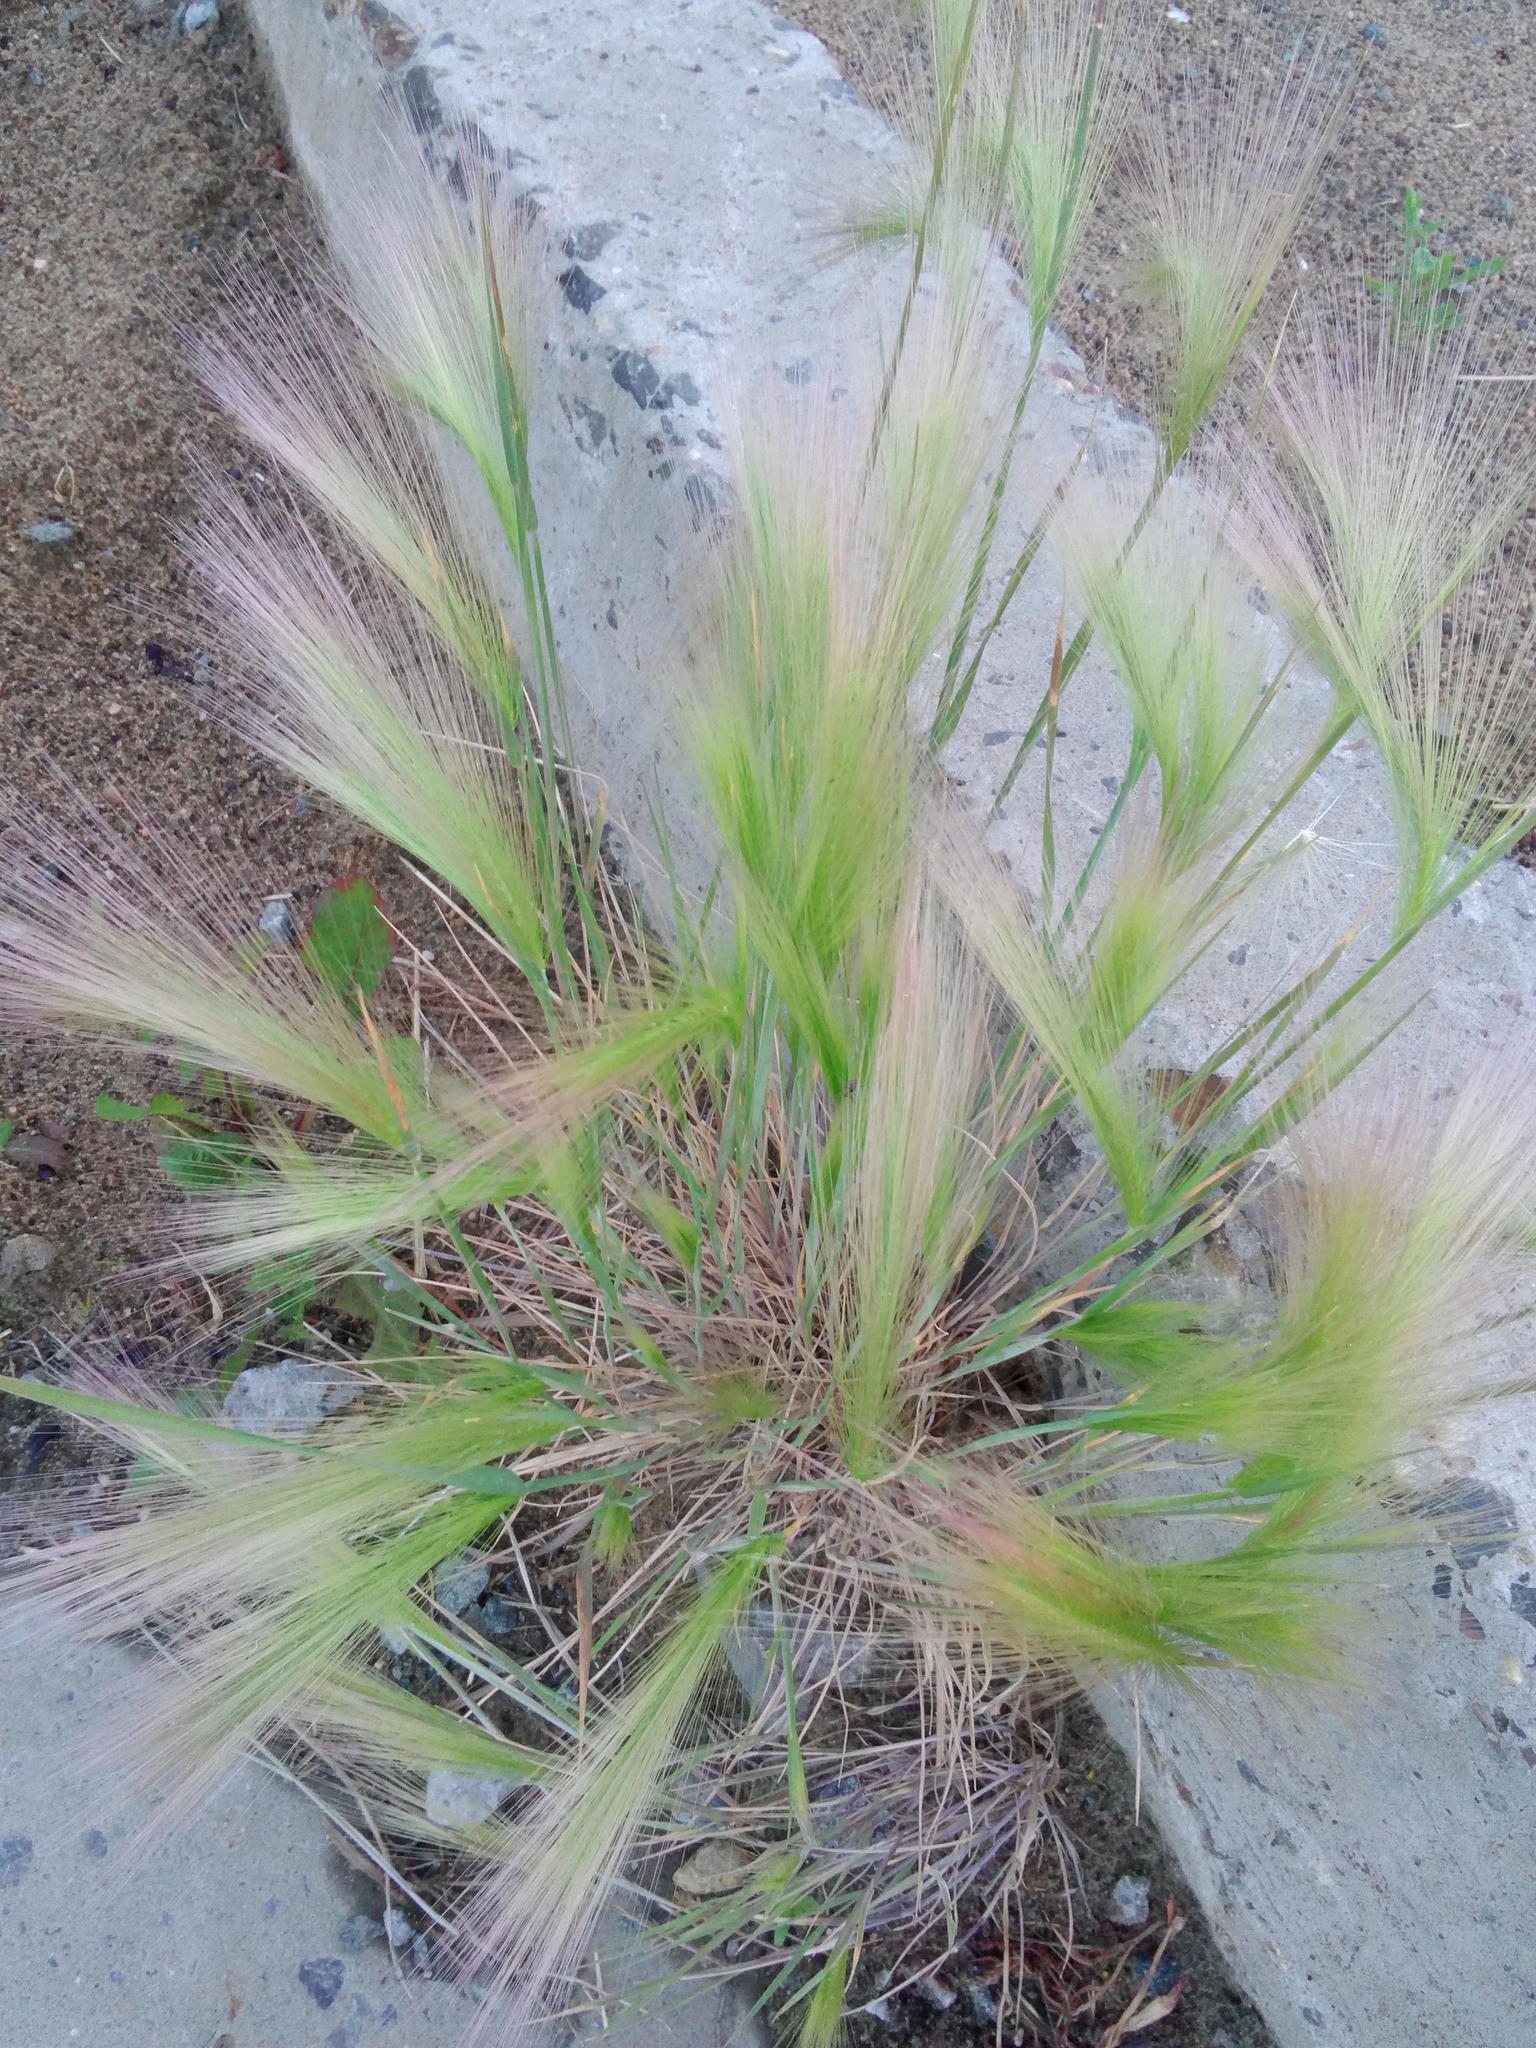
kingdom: Plantae
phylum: Tracheophyta
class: Liliopsida
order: Poales
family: Poaceae
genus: Hordeum
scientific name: Hordeum jubatum
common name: Foxtail barley
